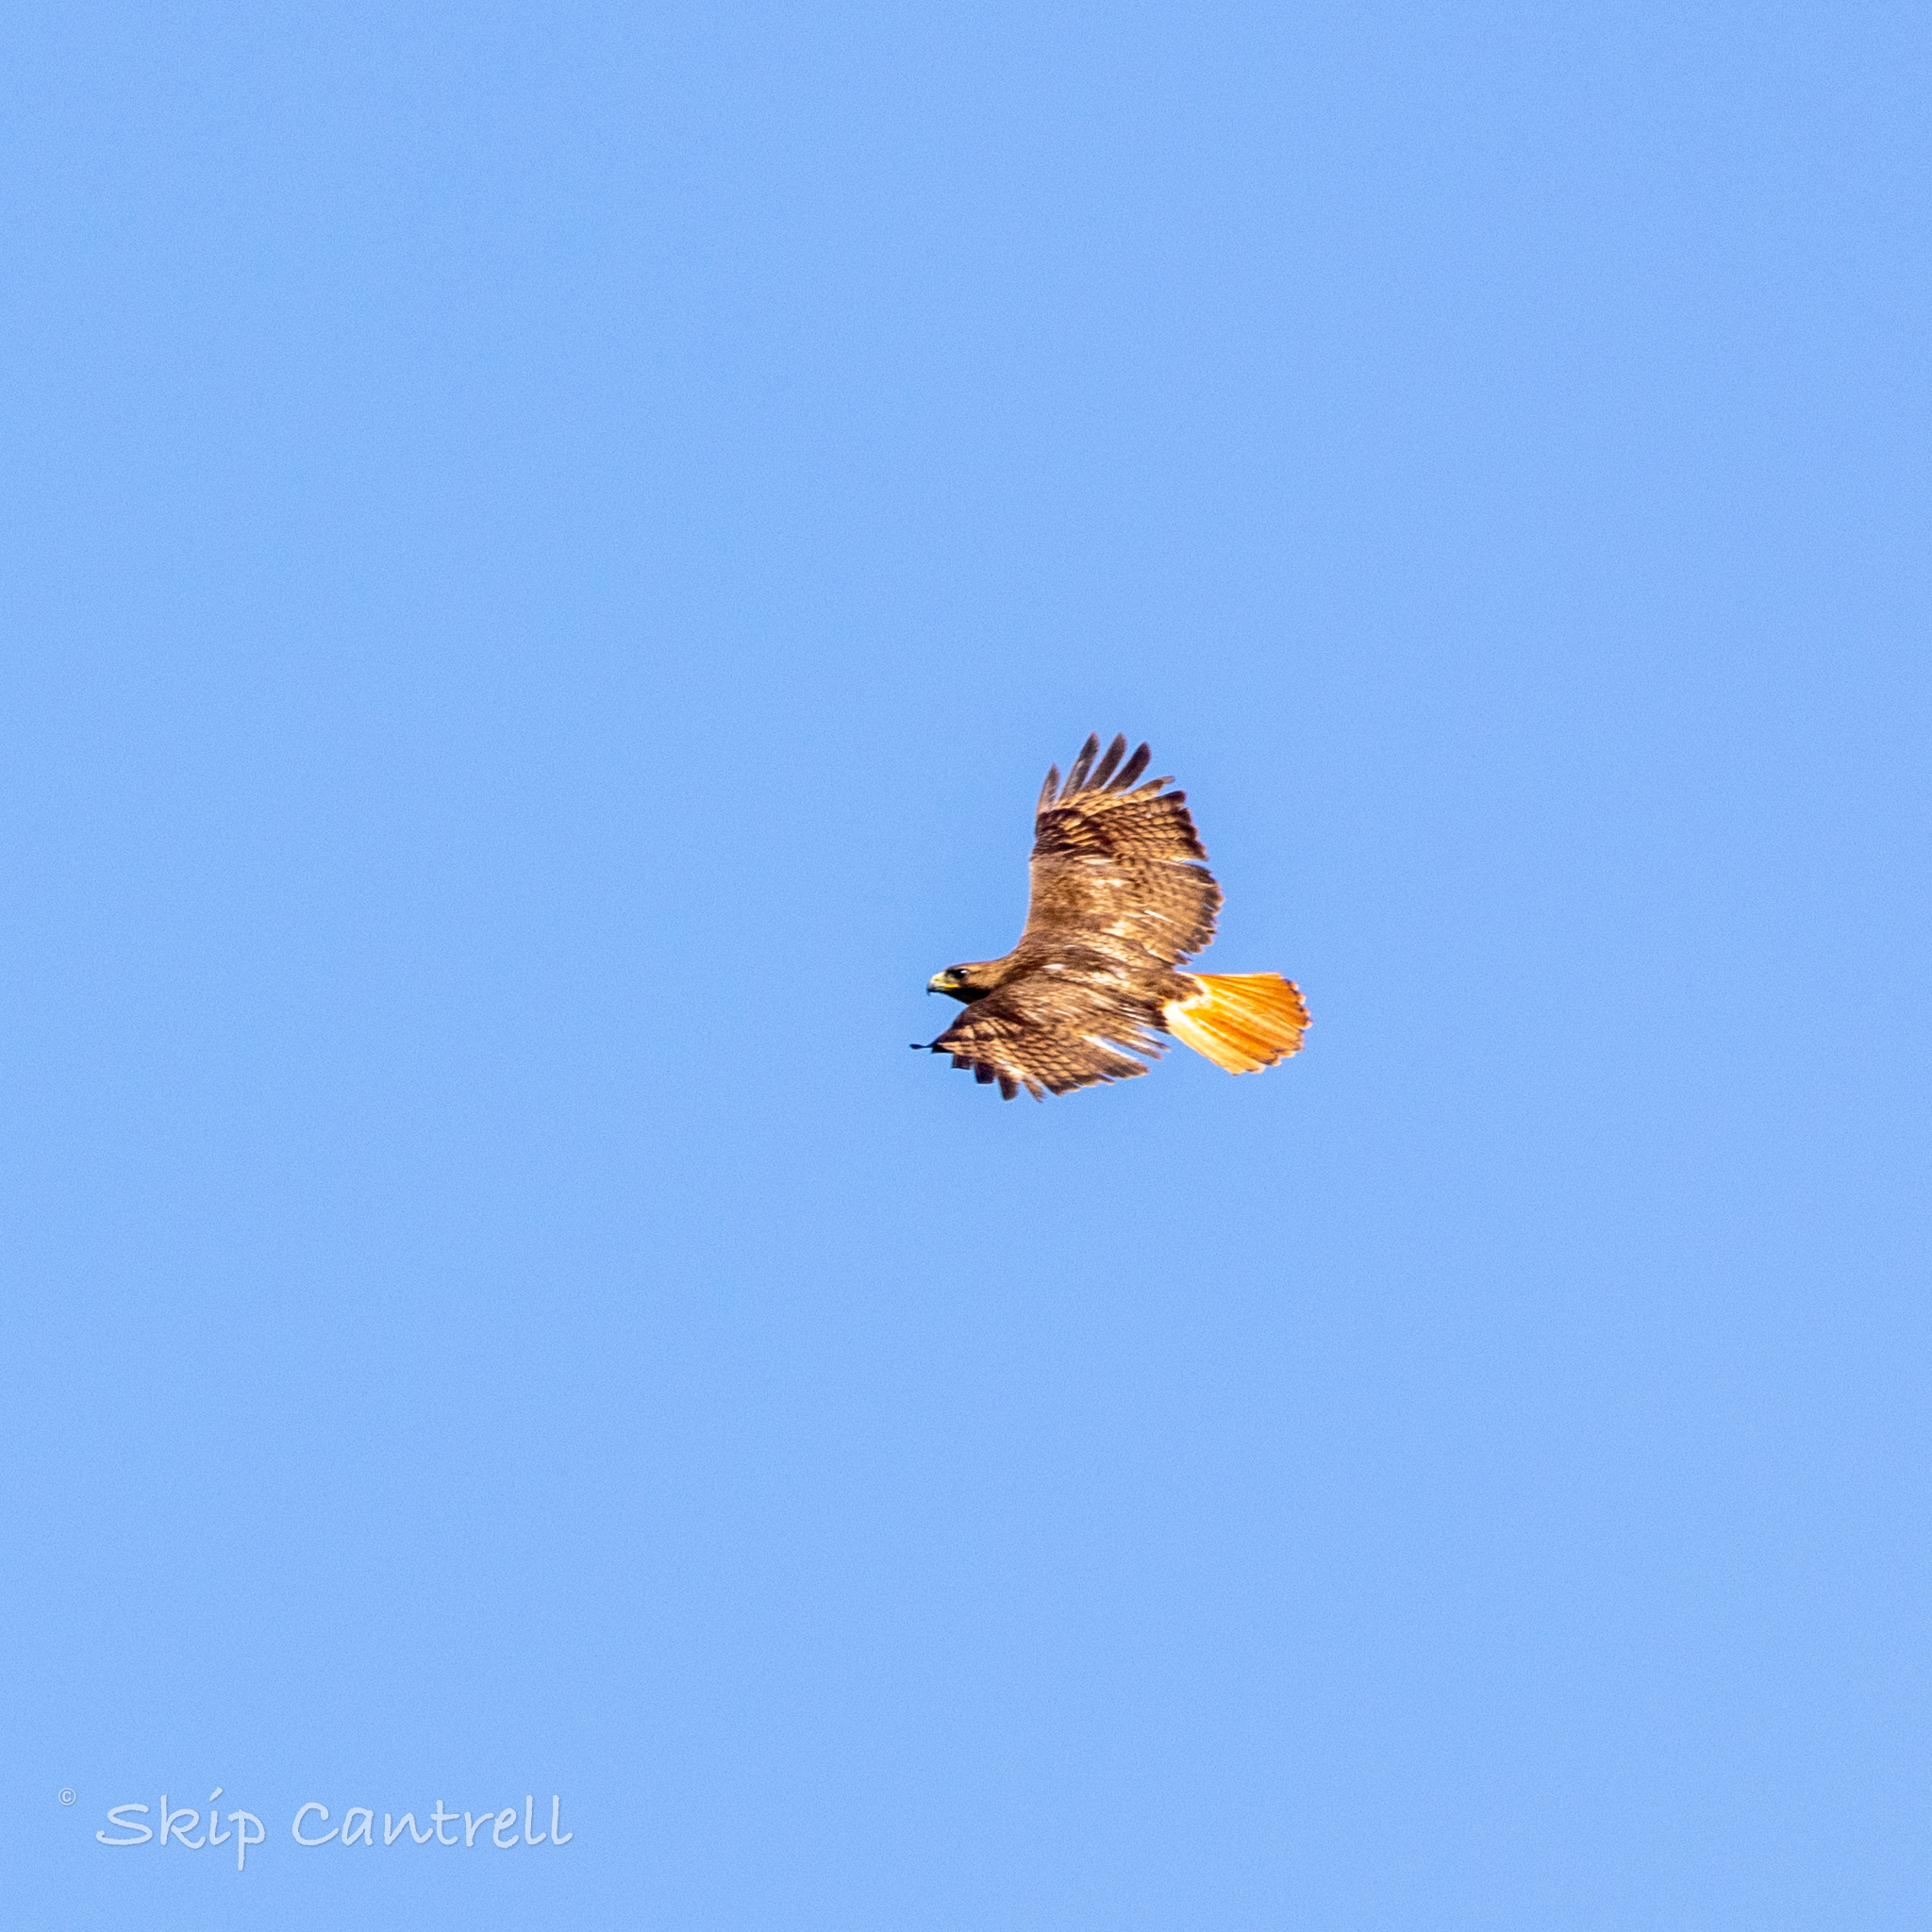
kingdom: Animalia
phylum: Chordata
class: Aves
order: Accipitriformes
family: Accipitridae
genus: Buteo
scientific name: Buteo jamaicensis
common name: Red-tailed hawk
